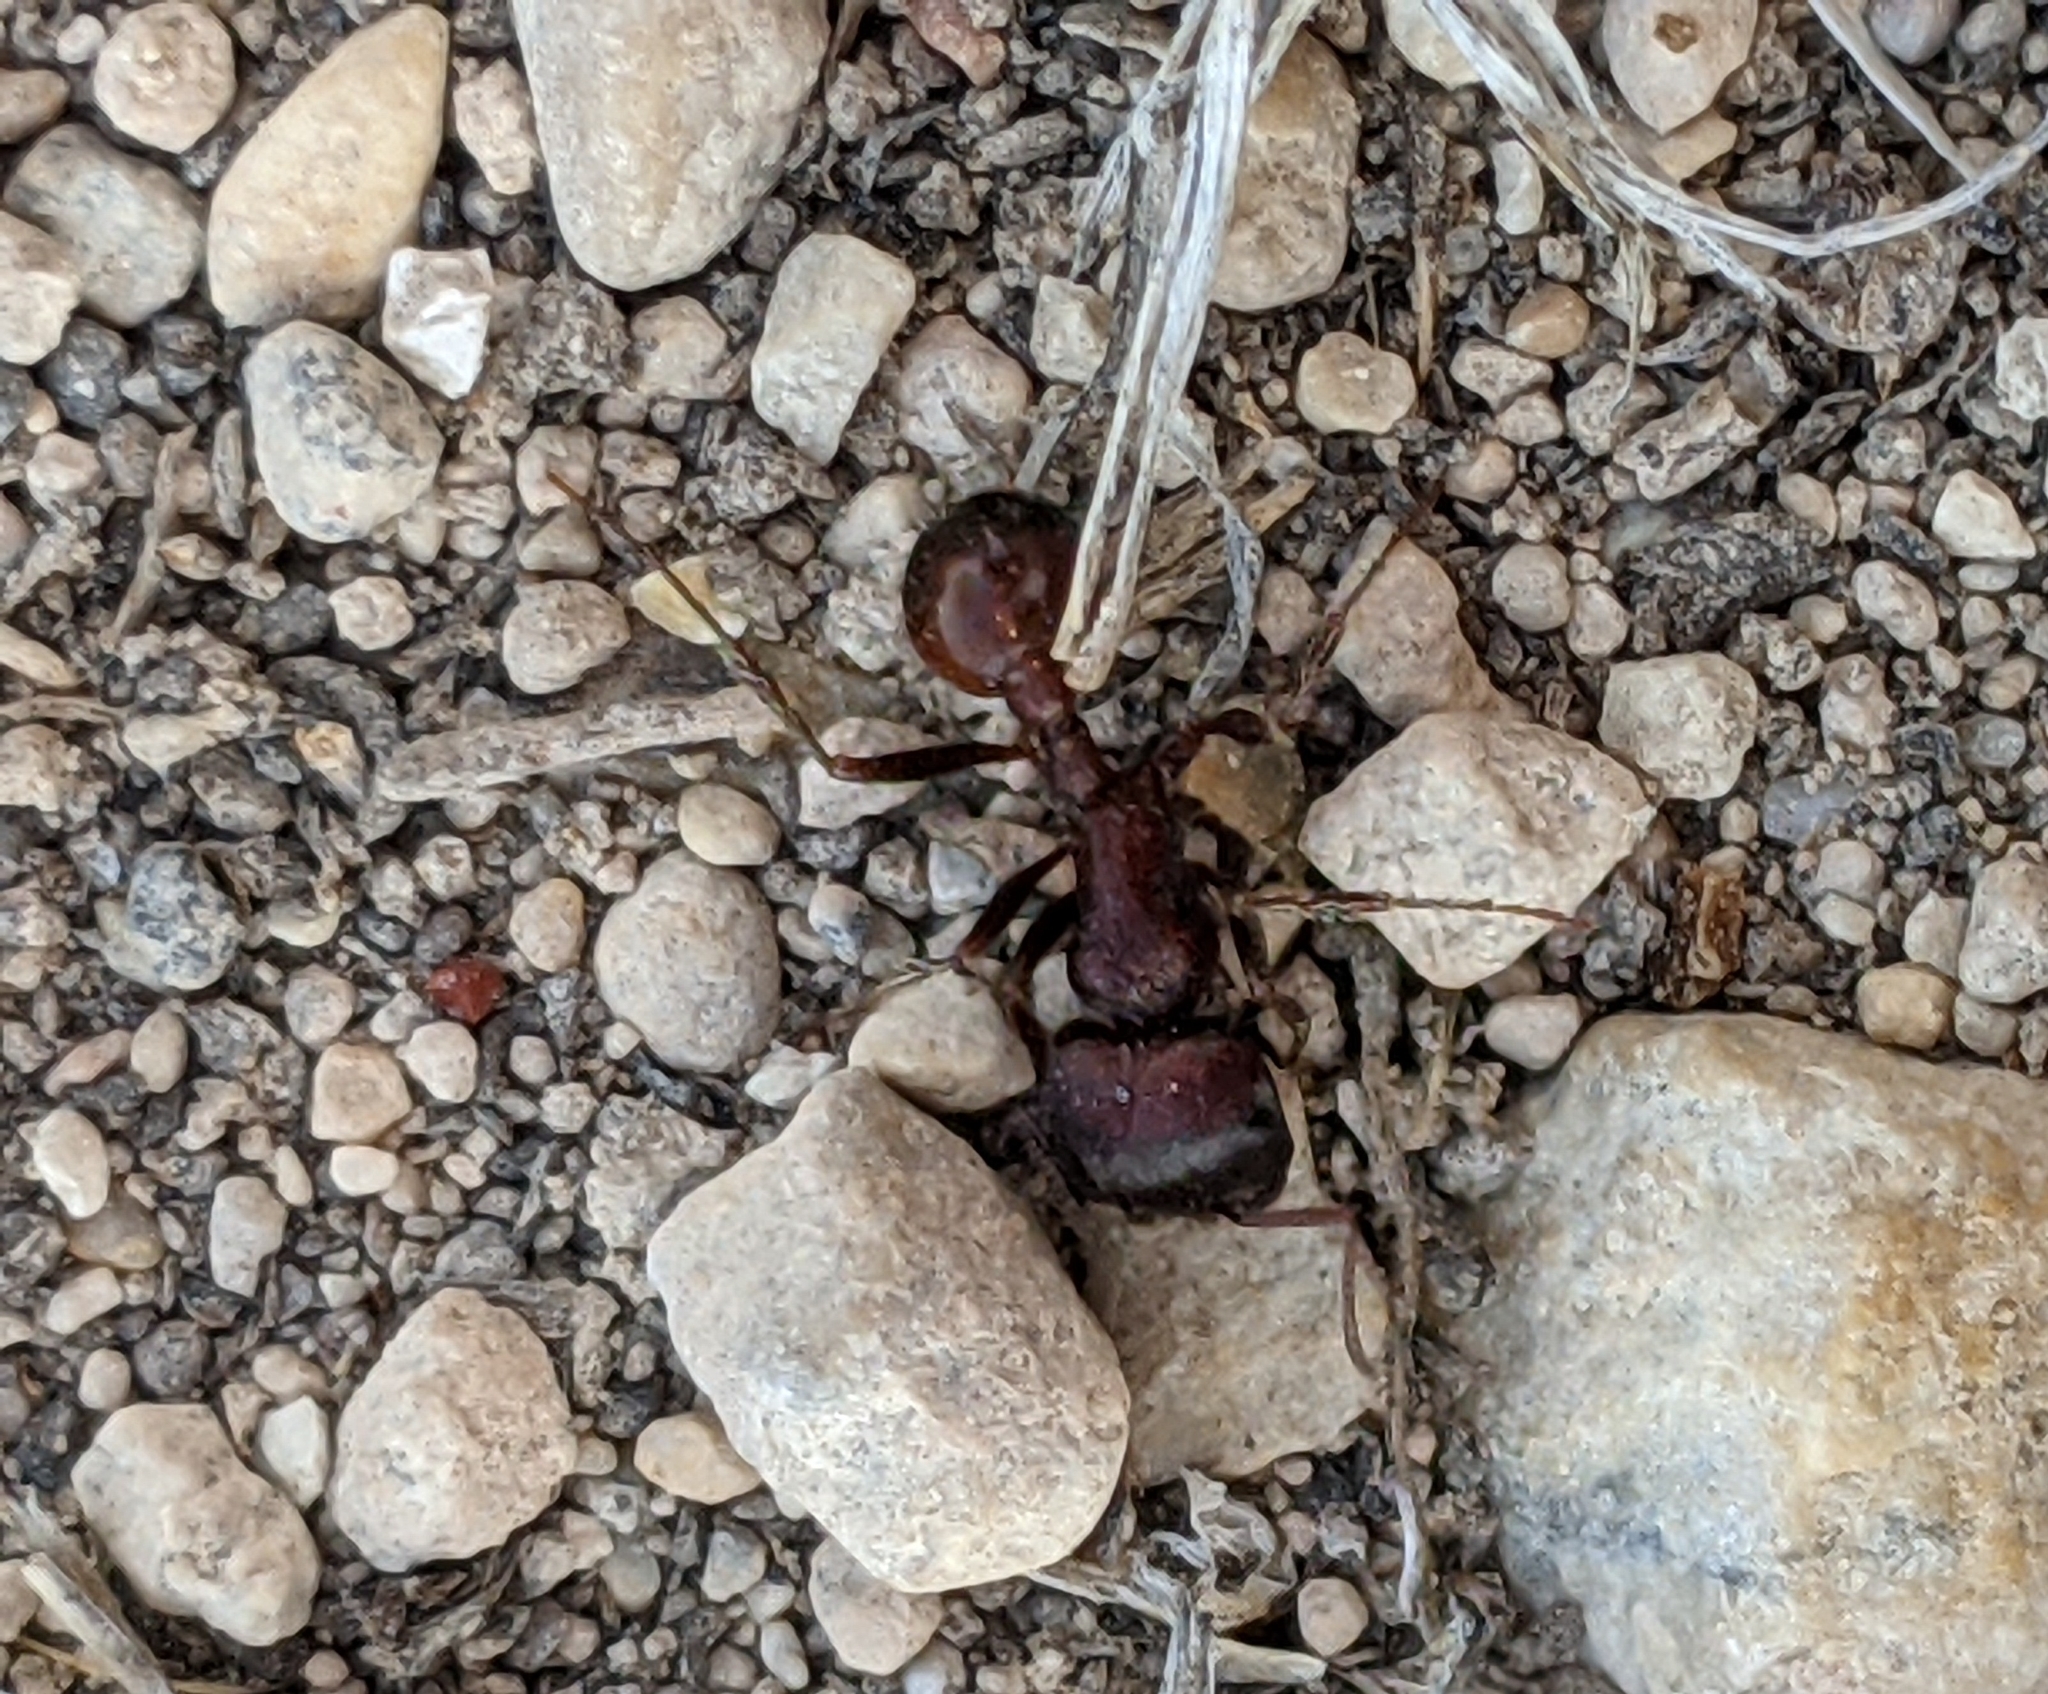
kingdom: Animalia
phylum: Arthropoda
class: Insecta
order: Hymenoptera
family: Formicidae
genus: Pogonomyrmex
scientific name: Pogonomyrmex rugosus
